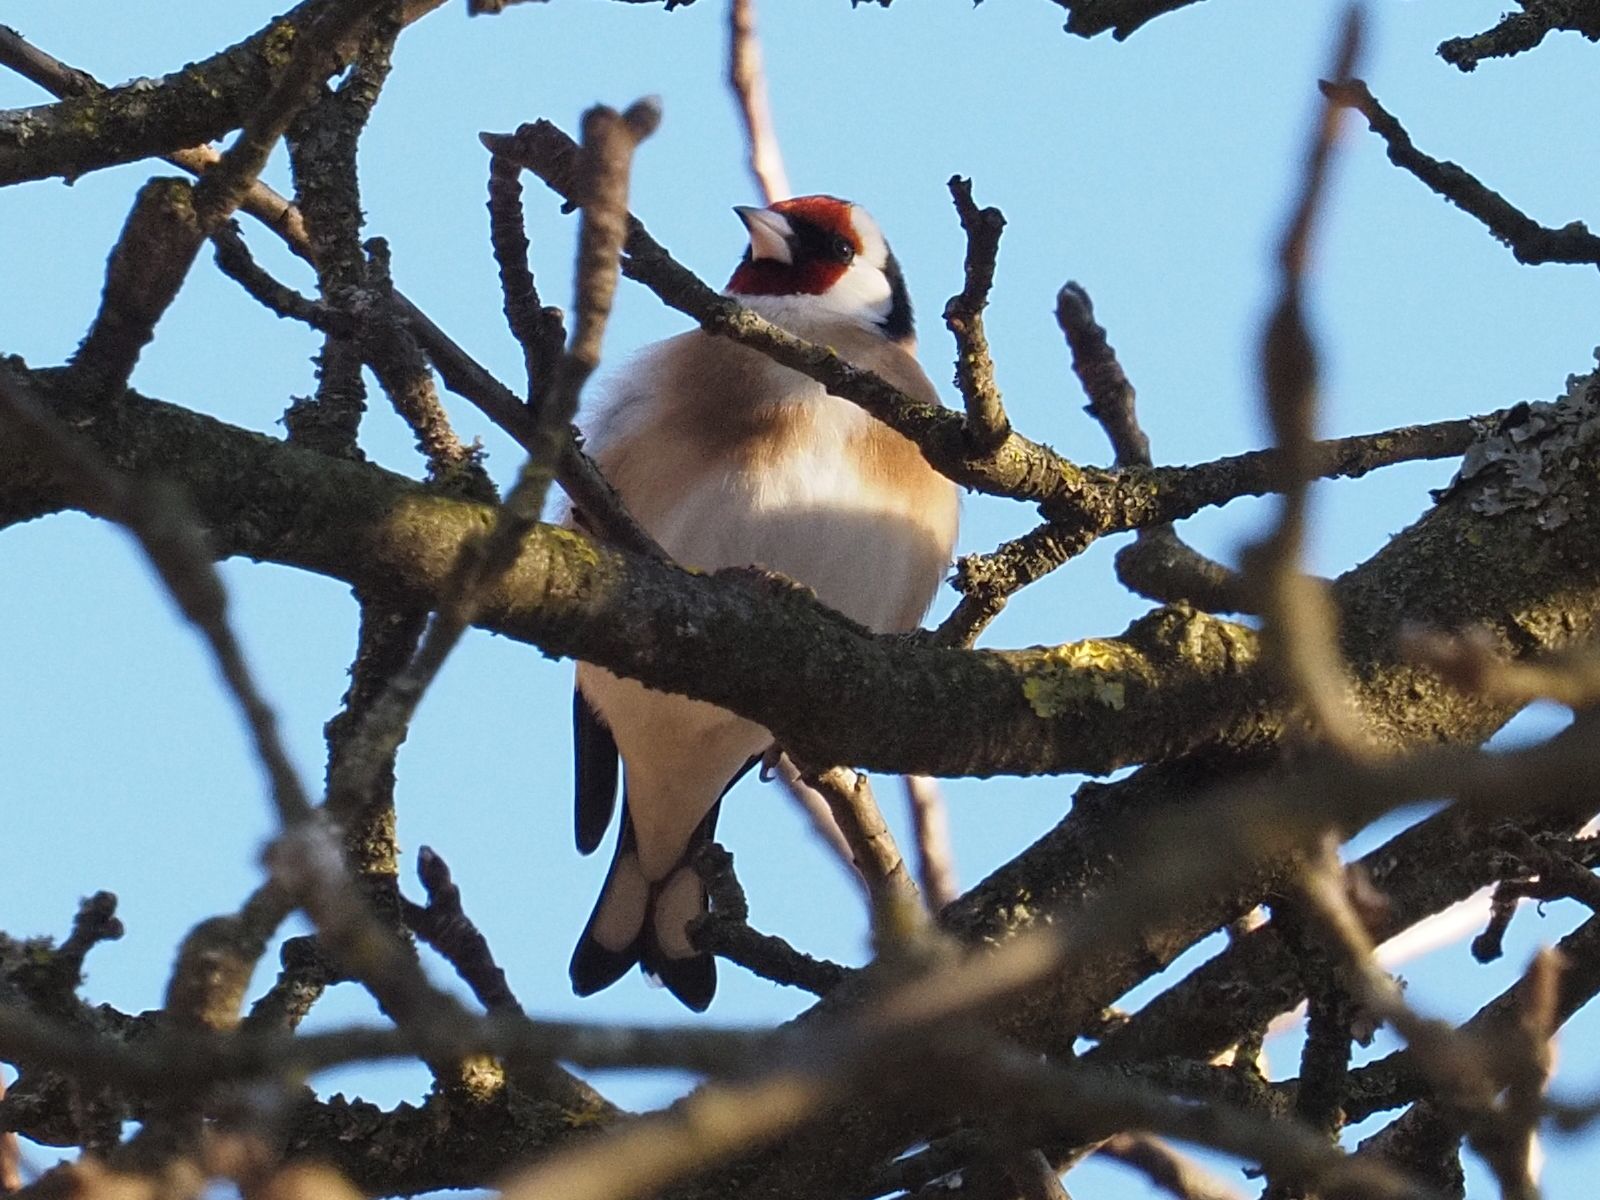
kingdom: Animalia
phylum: Chordata
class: Aves
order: Passeriformes
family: Fringillidae
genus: Carduelis
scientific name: Carduelis carduelis
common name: European goldfinch
